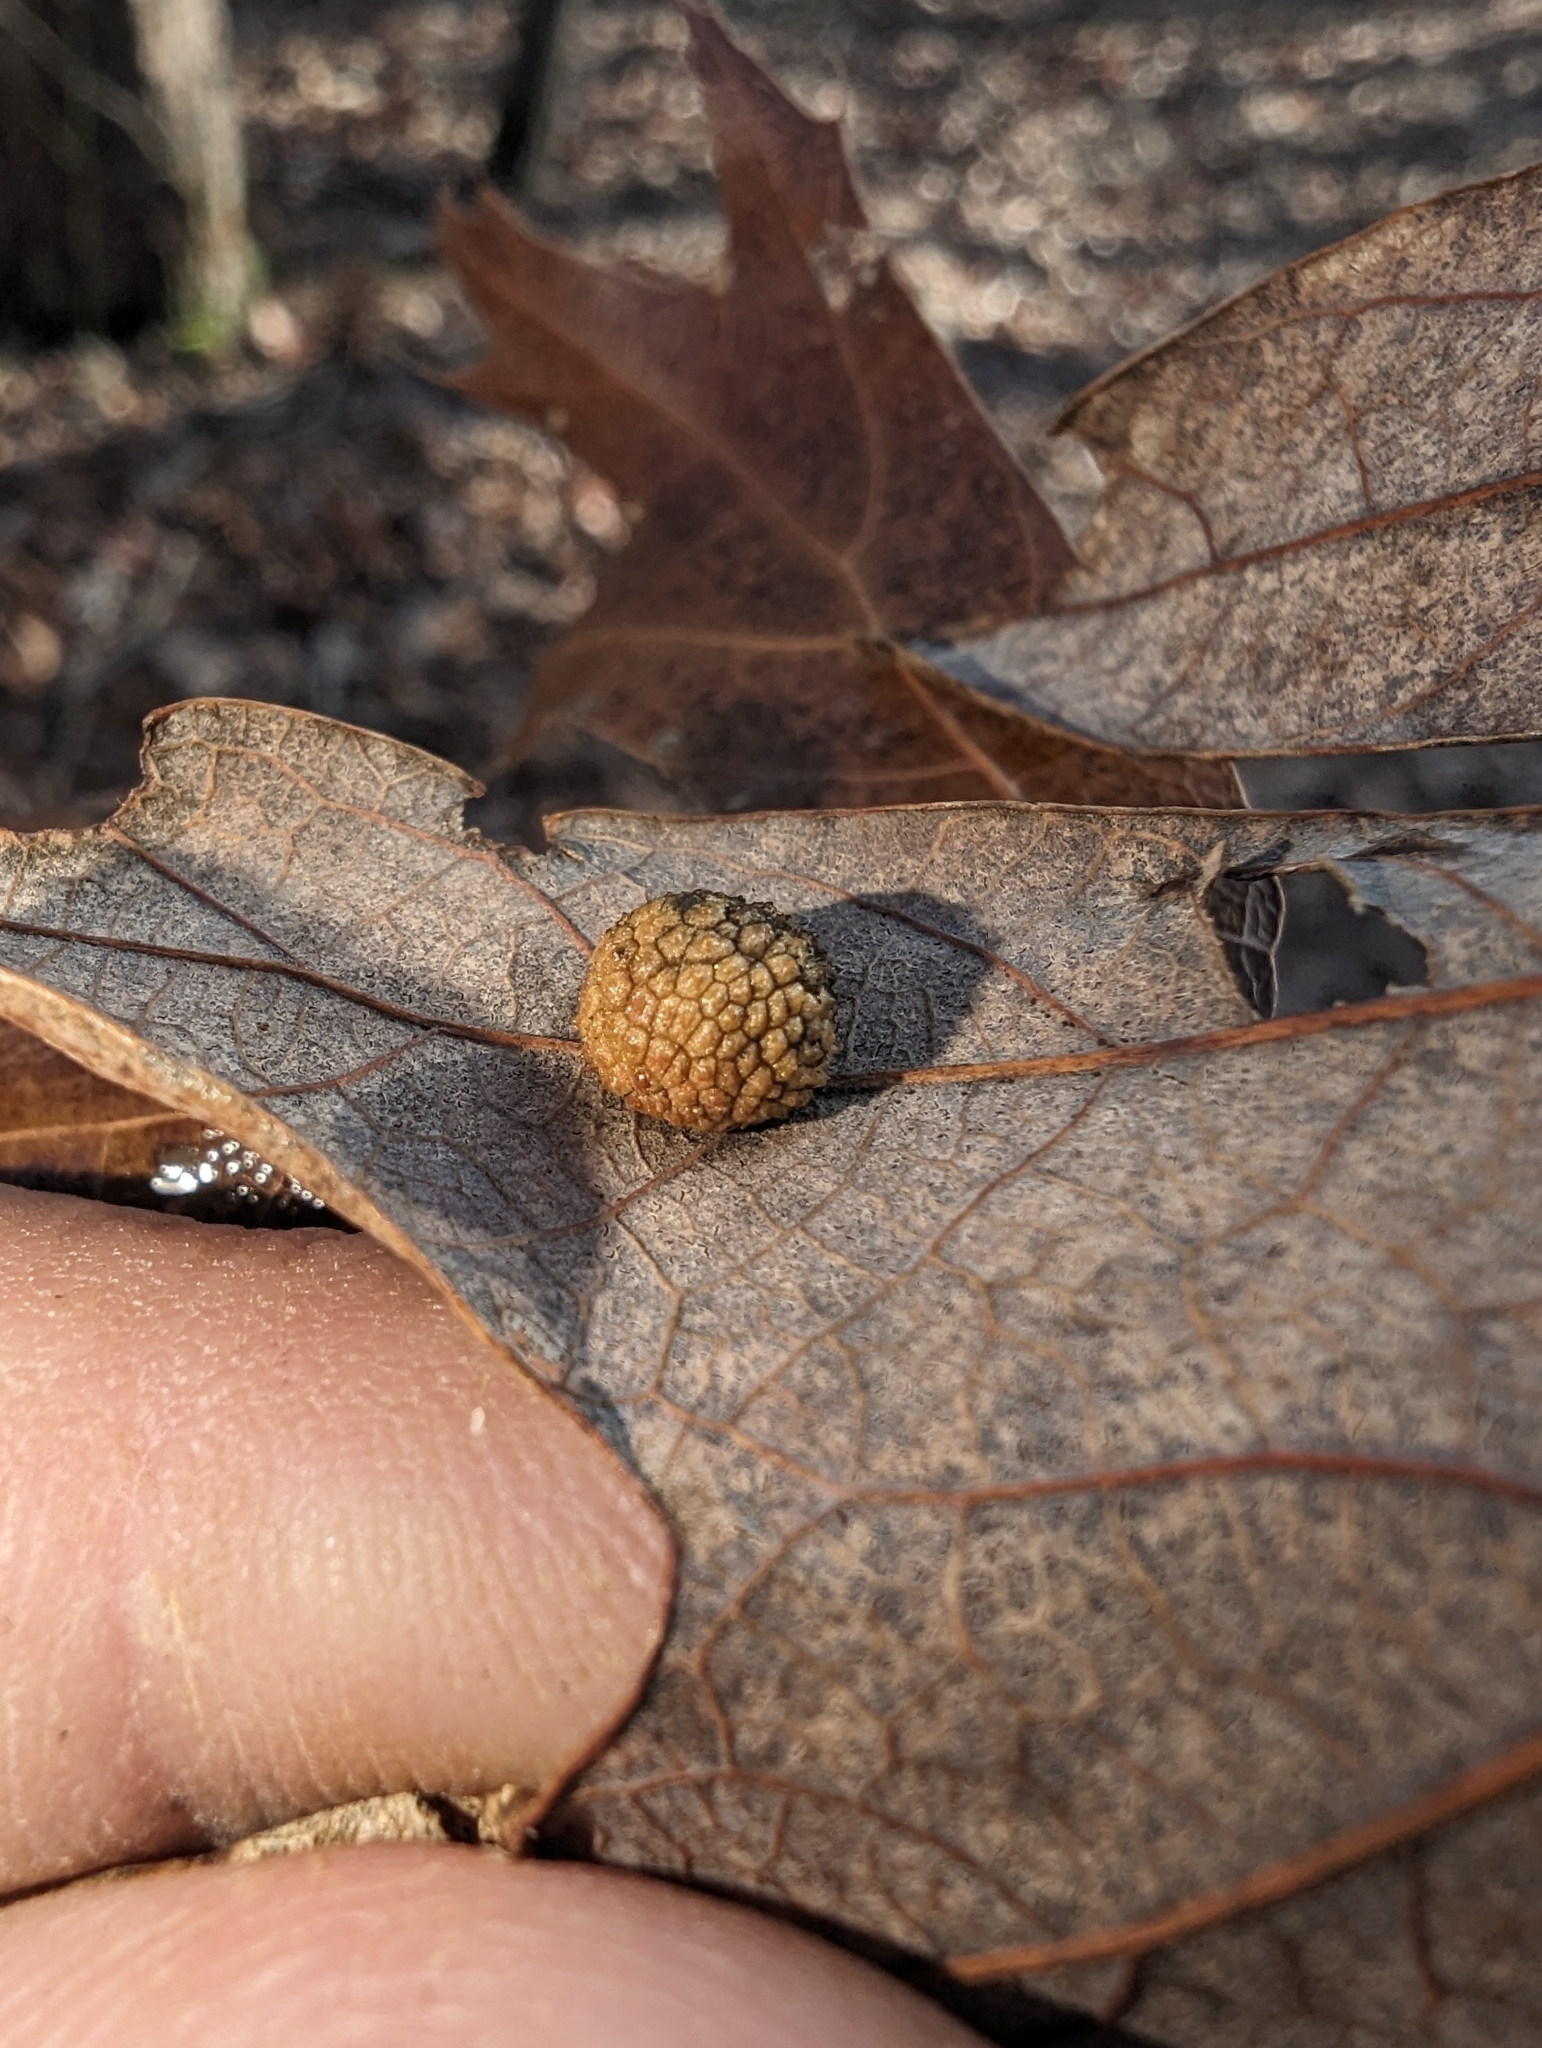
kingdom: Animalia
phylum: Arthropoda
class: Insecta
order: Hymenoptera
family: Cynipidae
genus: Acraspis
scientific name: Acraspis
